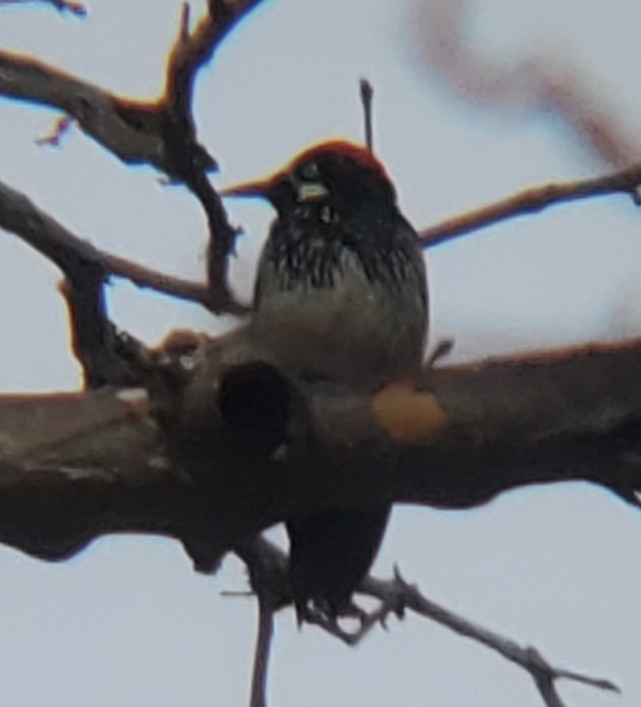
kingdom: Animalia
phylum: Chordata
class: Aves
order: Piciformes
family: Picidae
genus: Melanerpes
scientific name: Melanerpes formicivorus
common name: Acorn woodpecker
